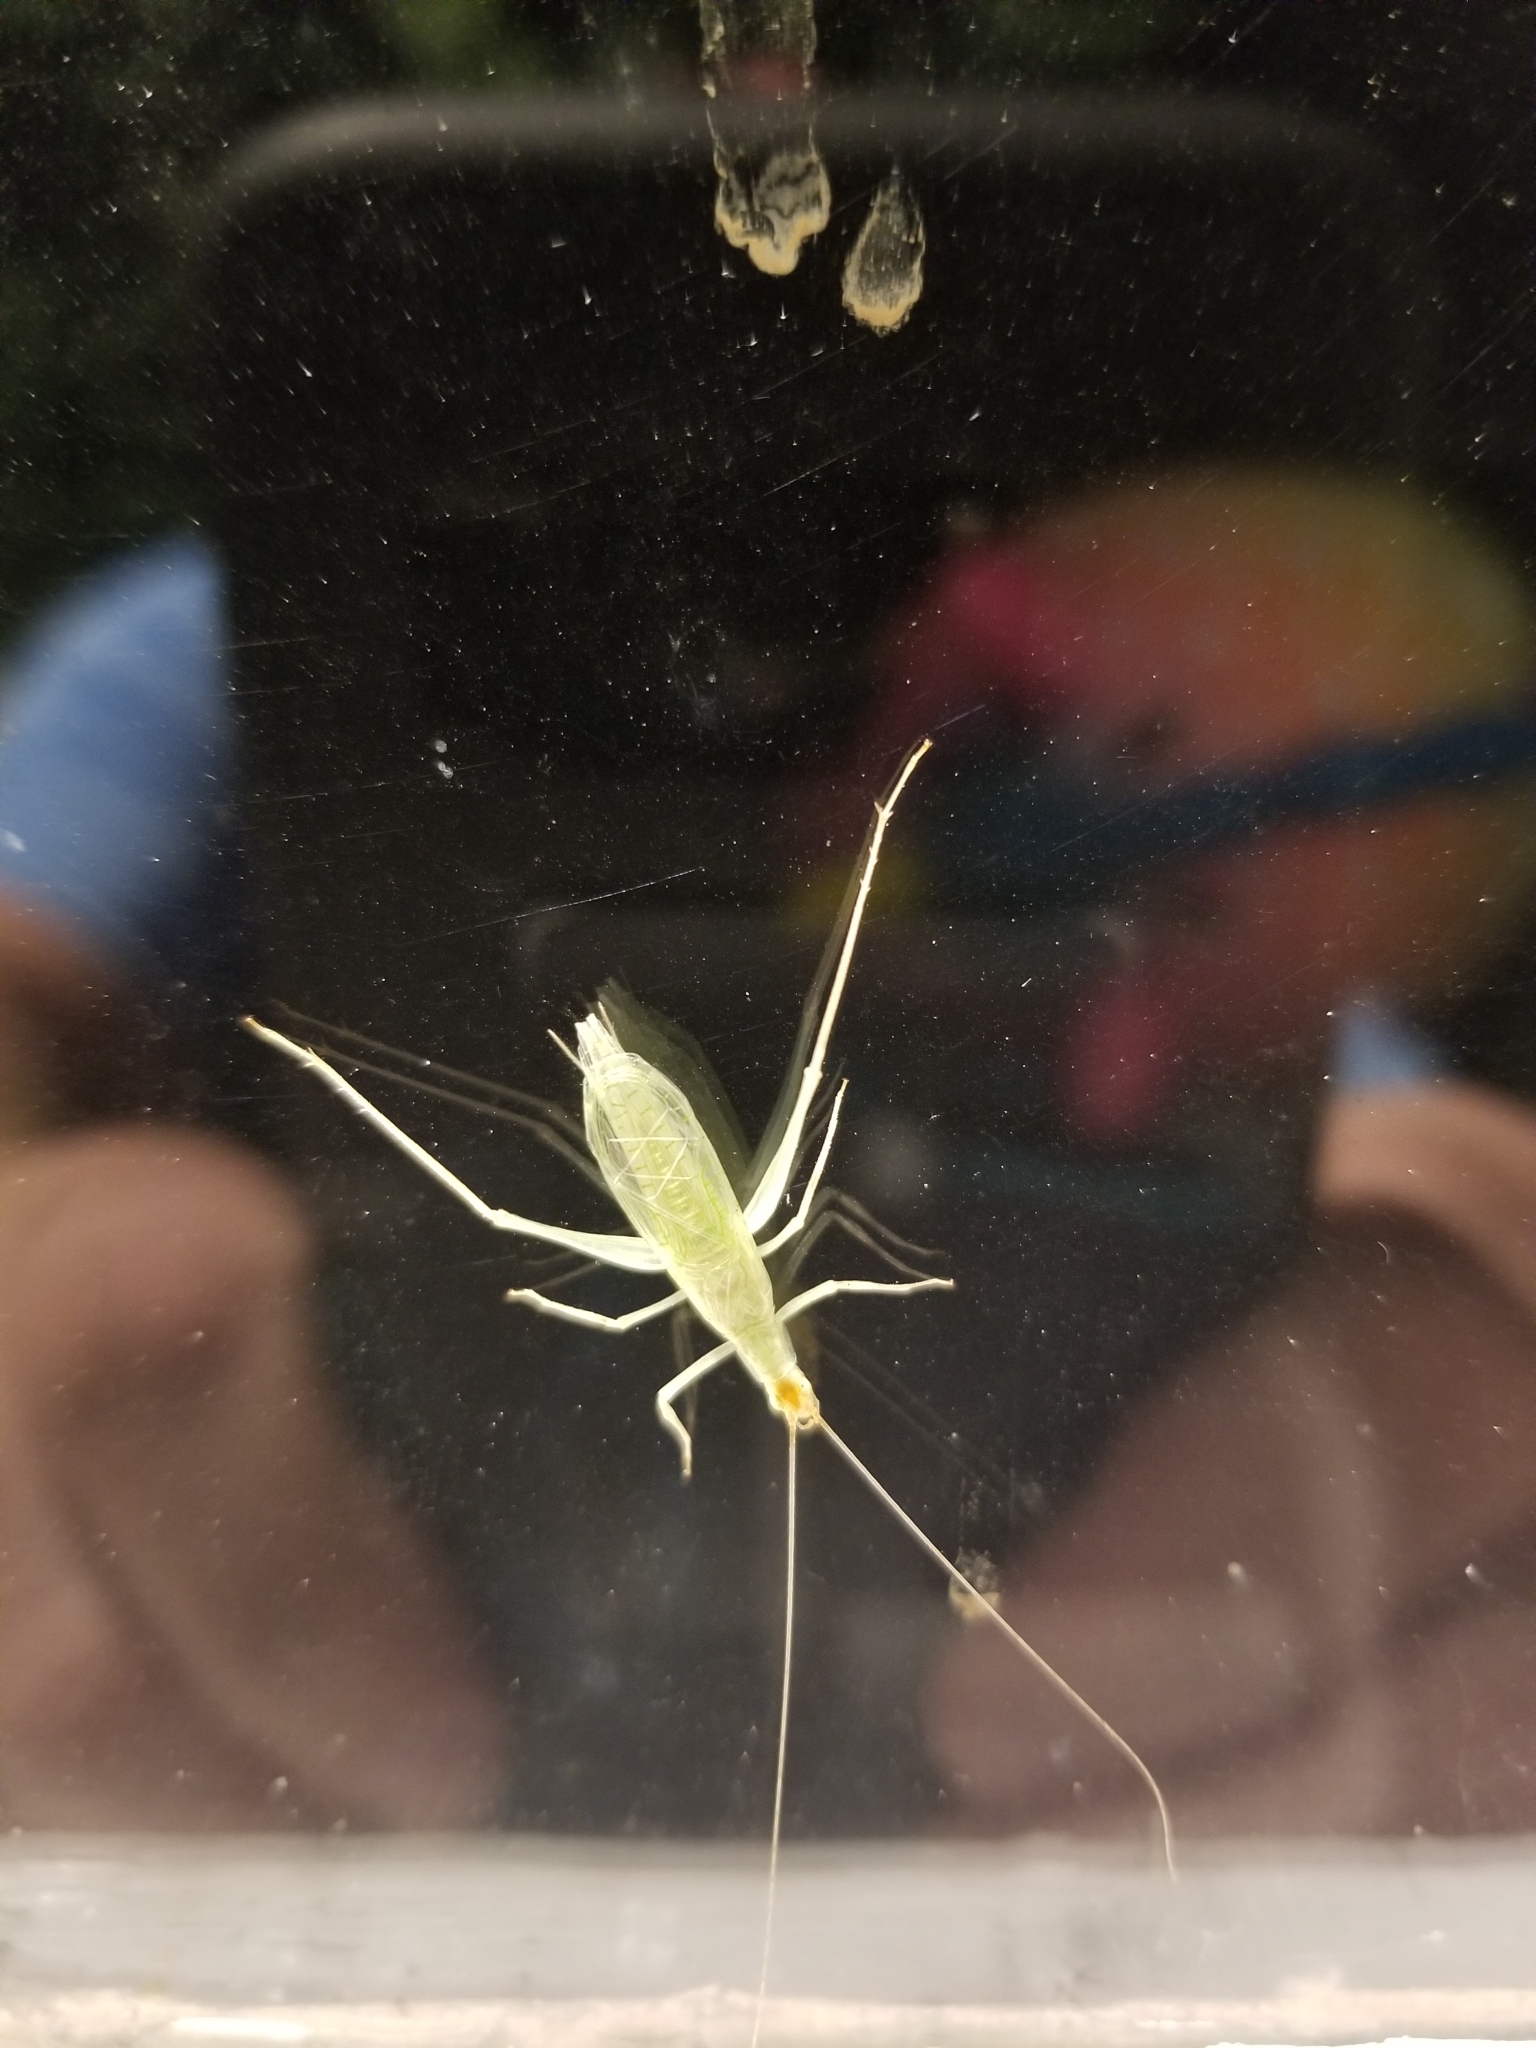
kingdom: Animalia
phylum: Arthropoda
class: Insecta
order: Orthoptera
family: Gryllidae
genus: Oecanthus
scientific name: Oecanthus niveus
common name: Narrow-winged tree cricket
